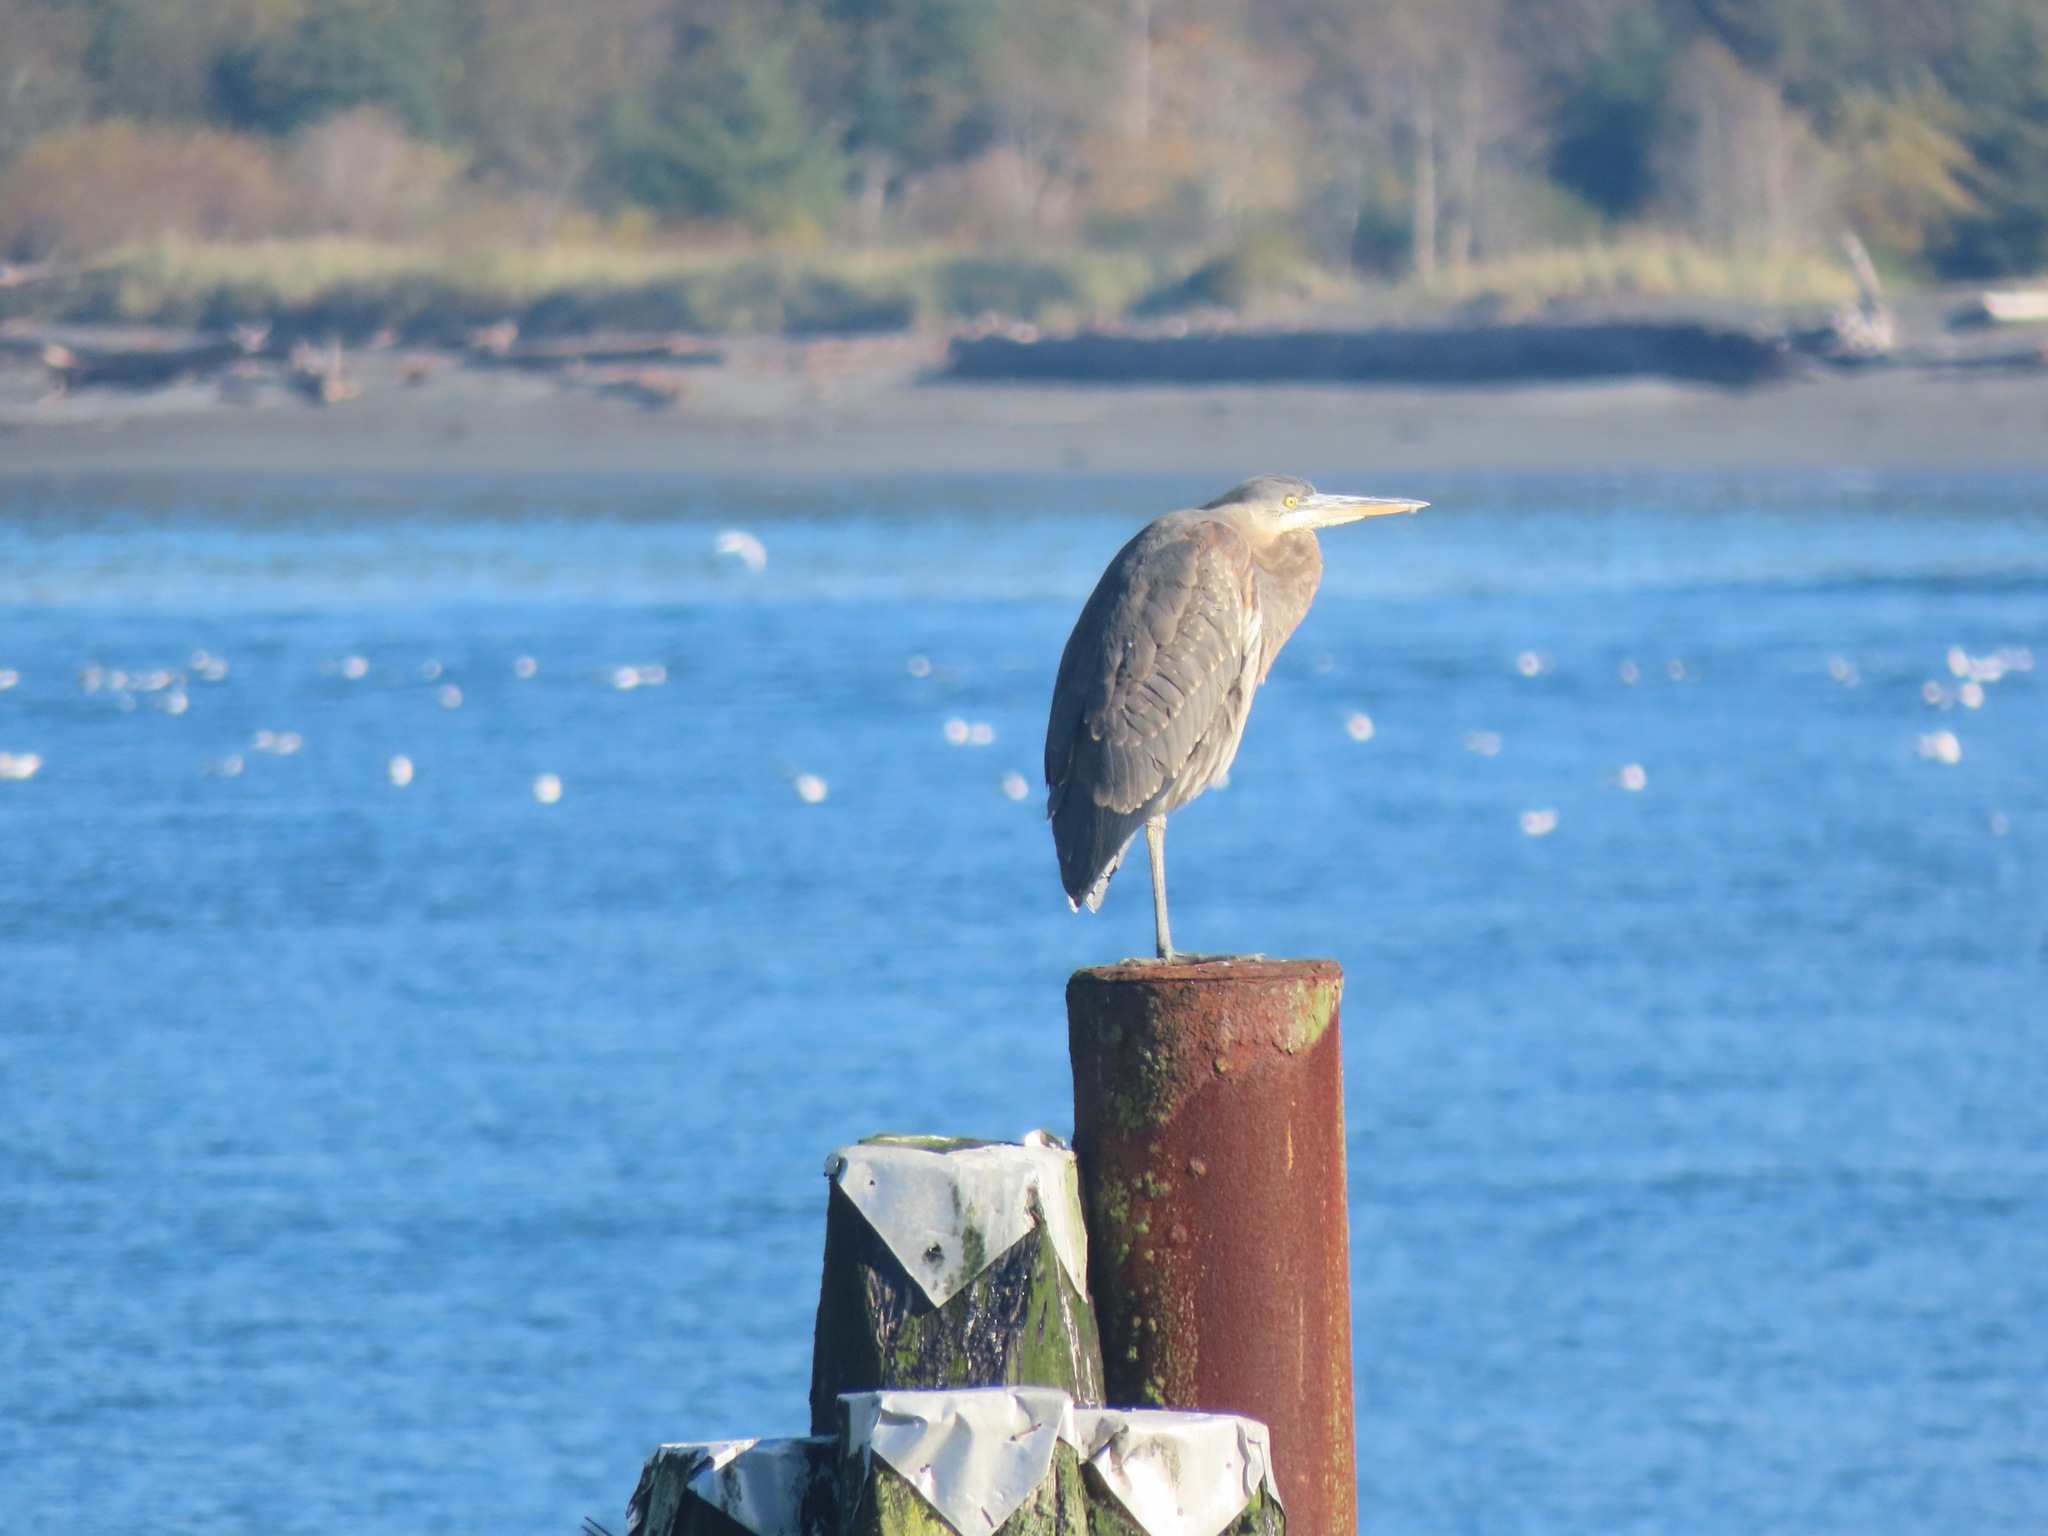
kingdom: Animalia
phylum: Chordata
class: Aves
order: Pelecaniformes
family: Ardeidae
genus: Ardea
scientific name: Ardea herodias
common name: Great blue heron
